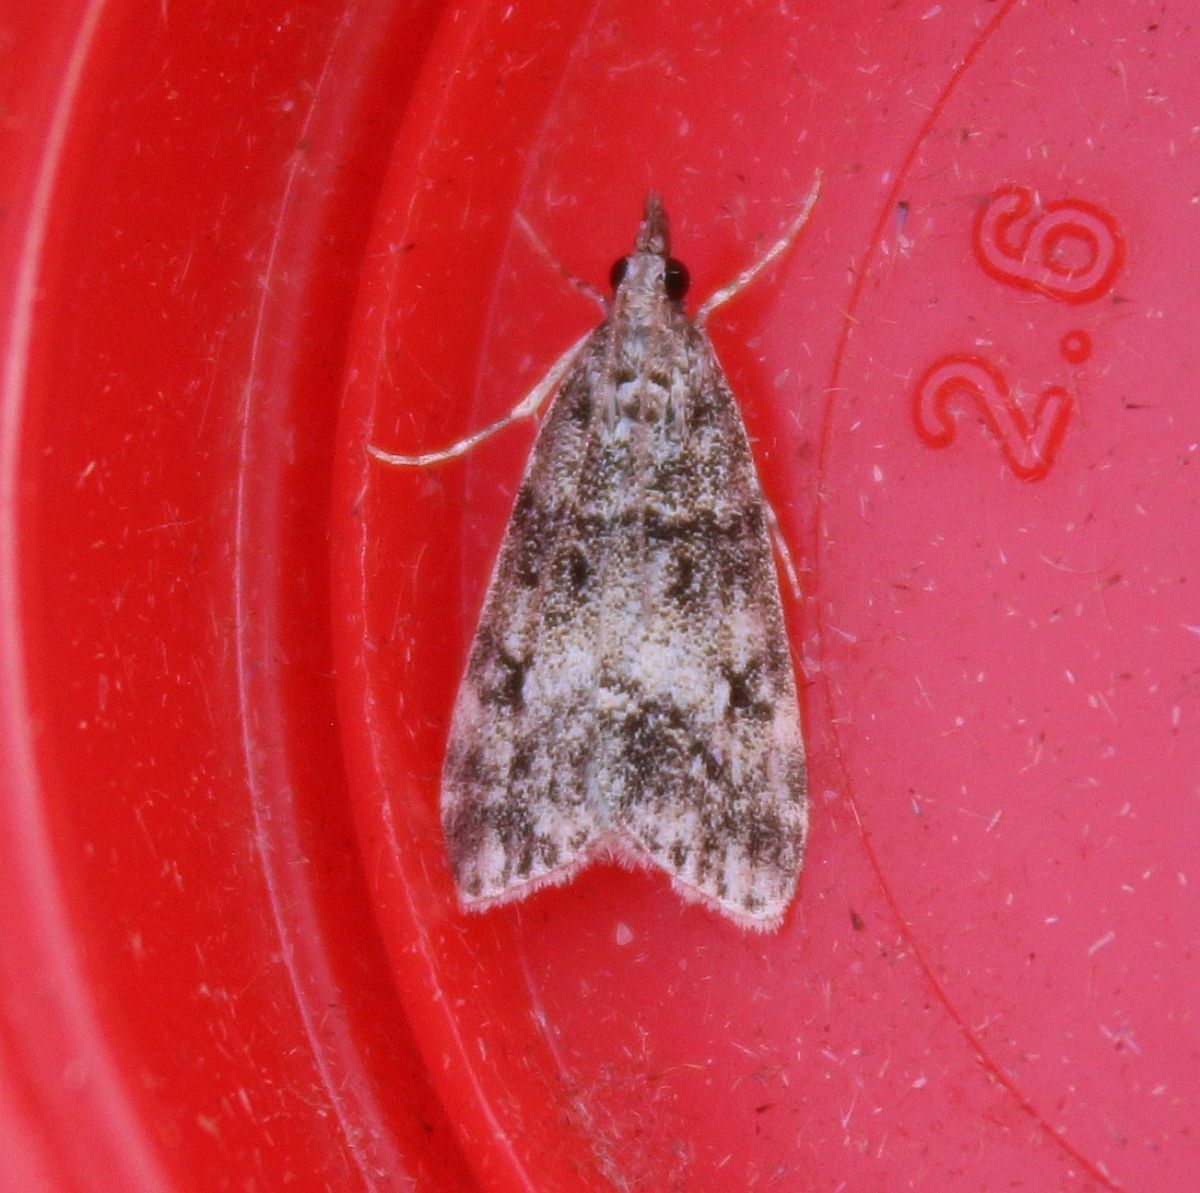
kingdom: Animalia
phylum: Arthropoda
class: Insecta
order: Lepidoptera
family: Crambidae
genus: Eudonia
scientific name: Eudonia lacustrata
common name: Little grey
